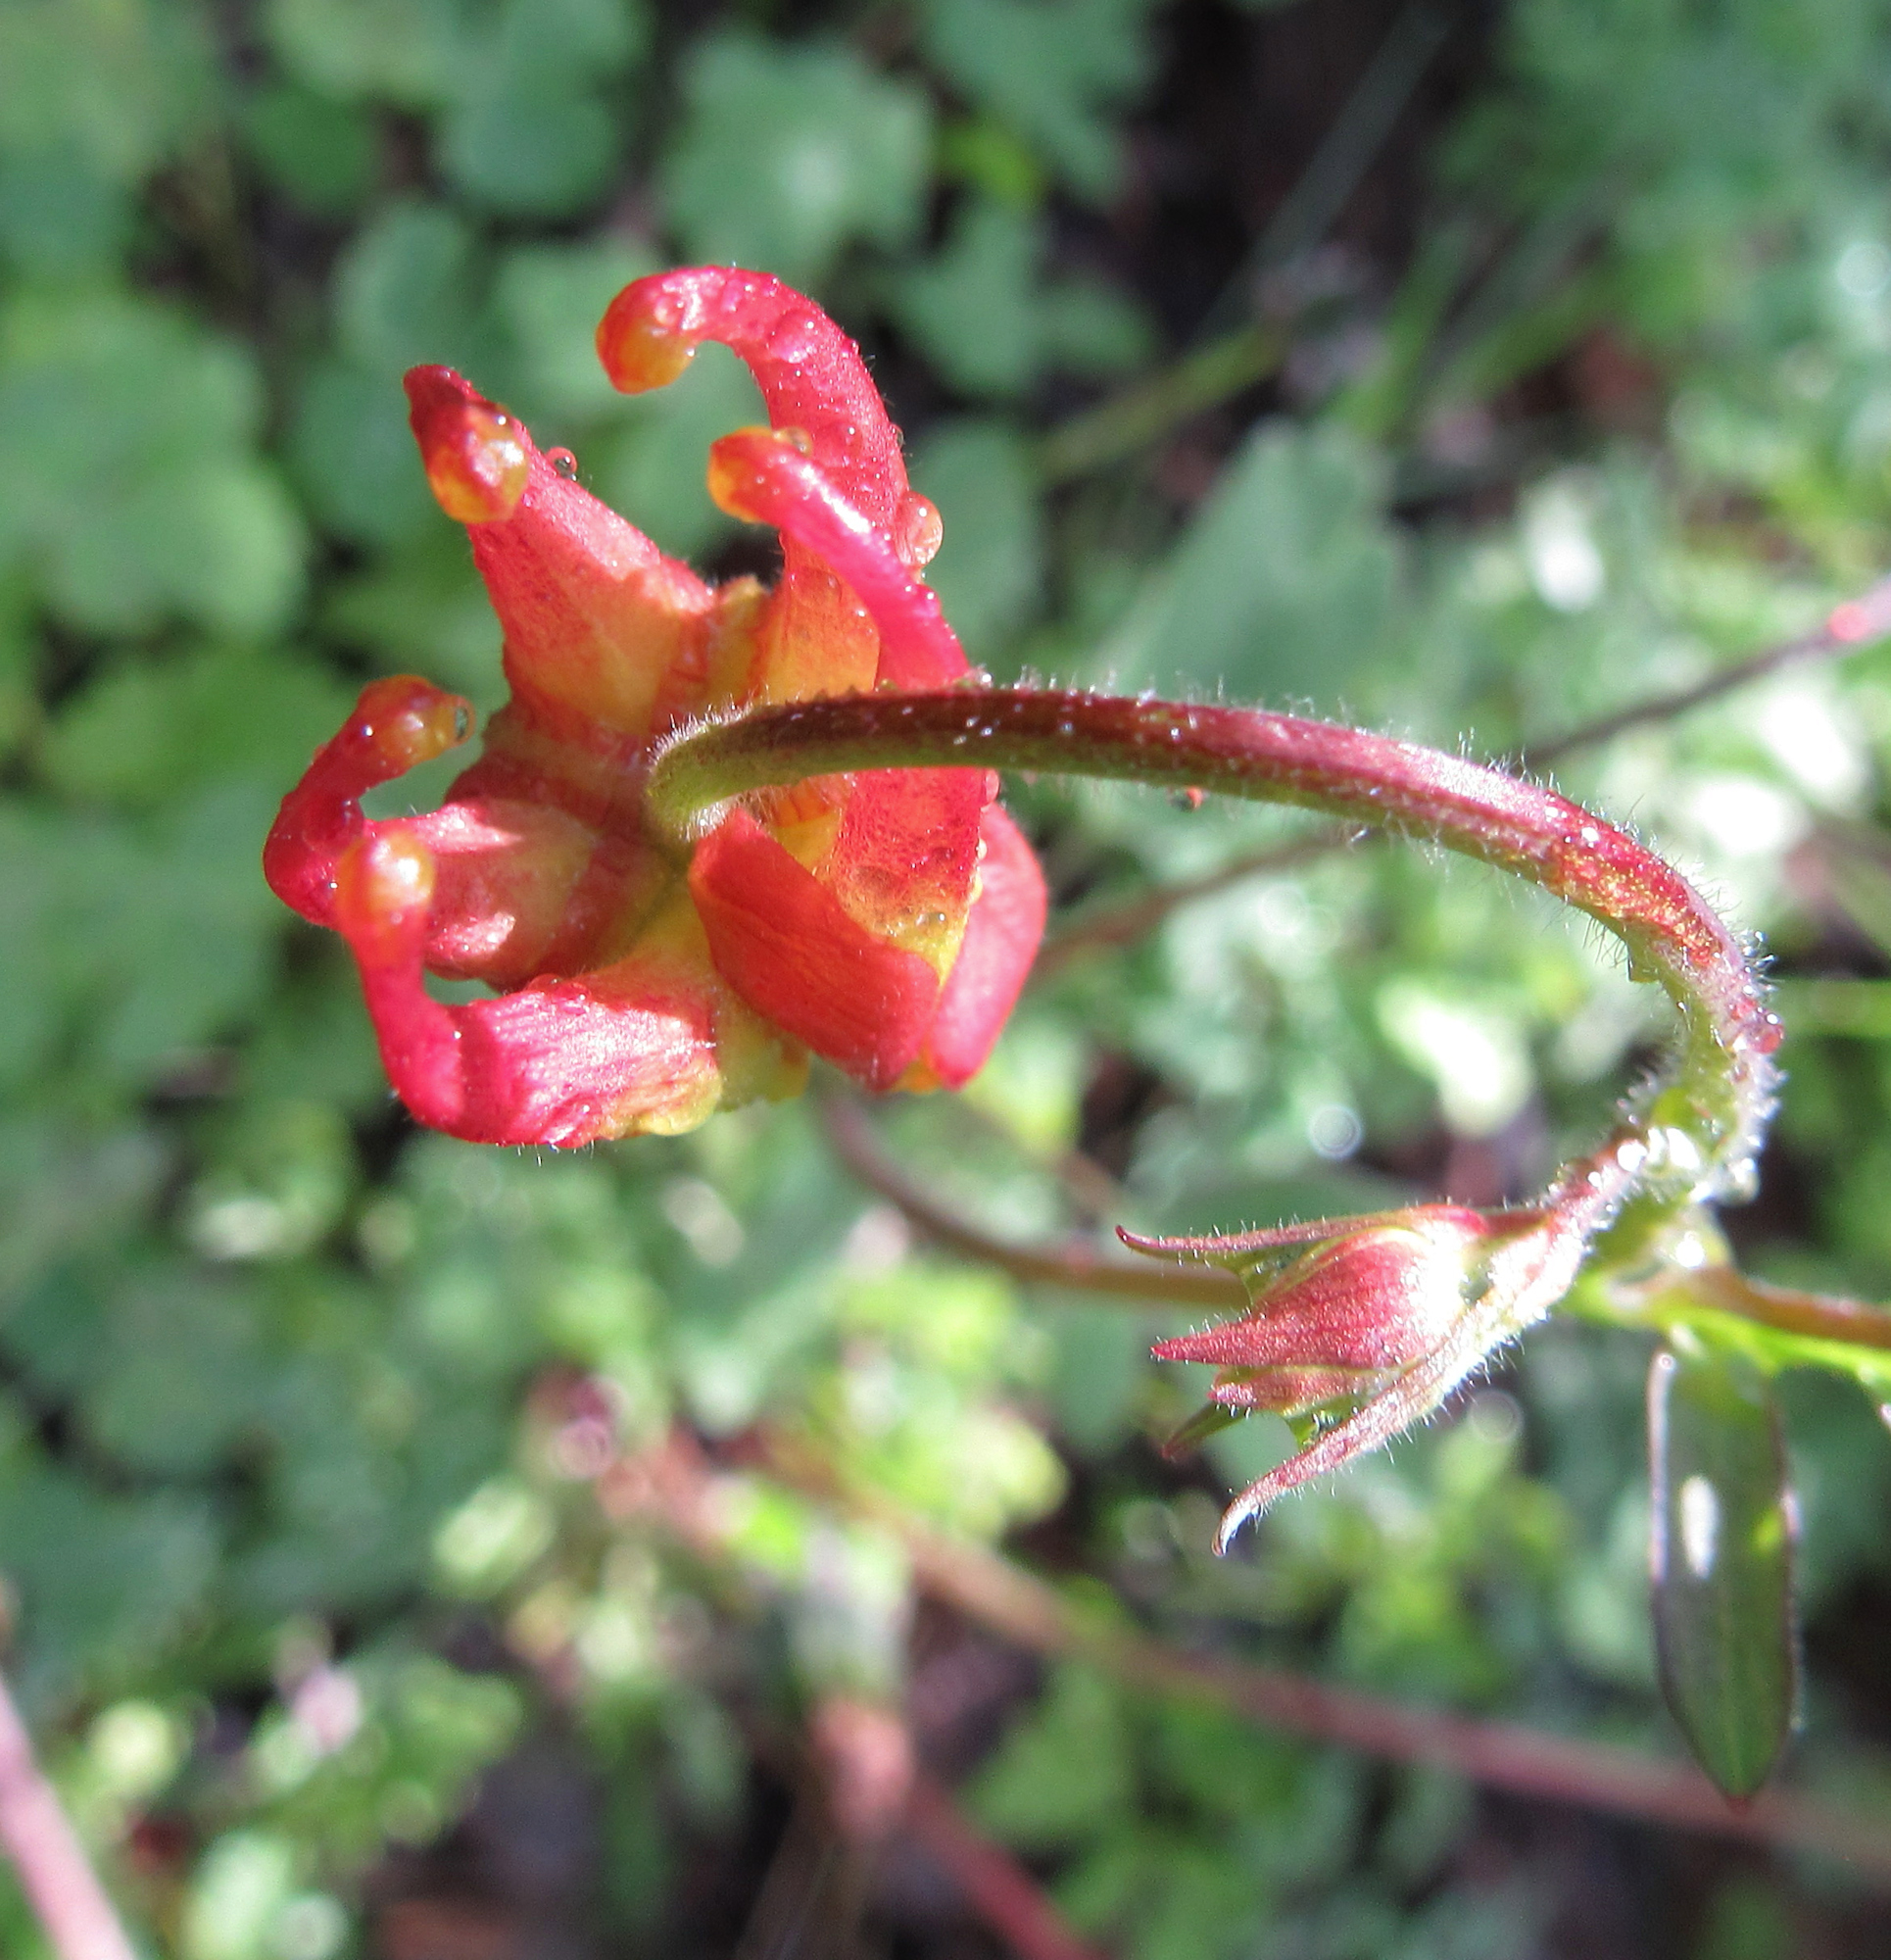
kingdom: Plantae
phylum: Tracheophyta
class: Magnoliopsida
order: Ranunculales
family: Ranunculaceae
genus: Aquilegia
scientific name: Aquilegia formosa
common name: Sitka columbine
